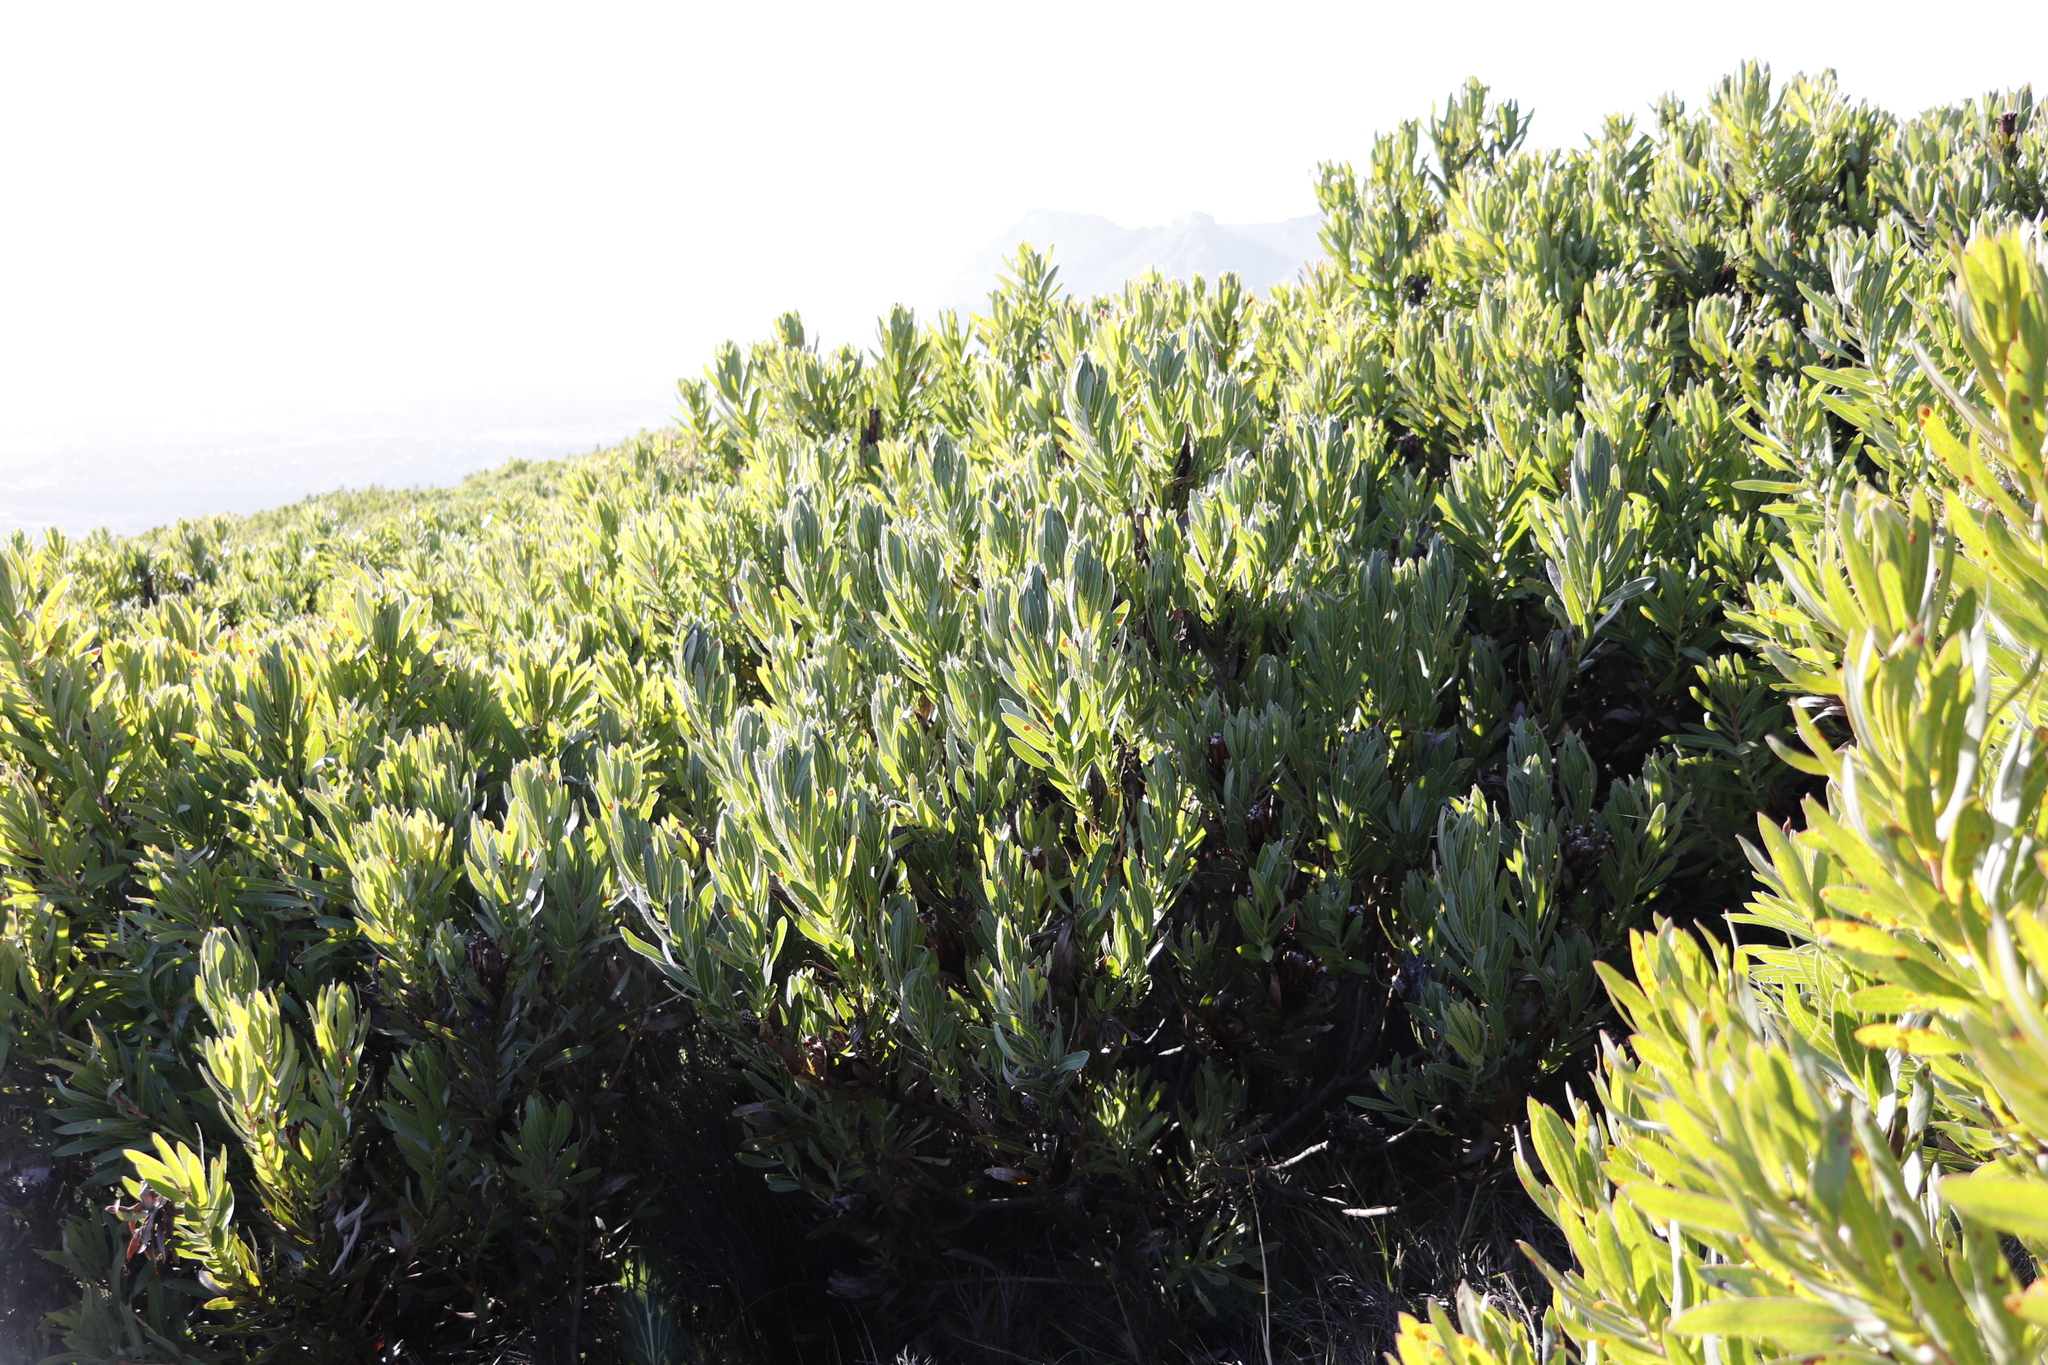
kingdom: Plantae
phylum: Tracheophyta
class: Magnoliopsida
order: Proteales
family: Proteaceae
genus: Protea
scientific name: Protea lepidocarpodendron
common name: Black-bearded protea
